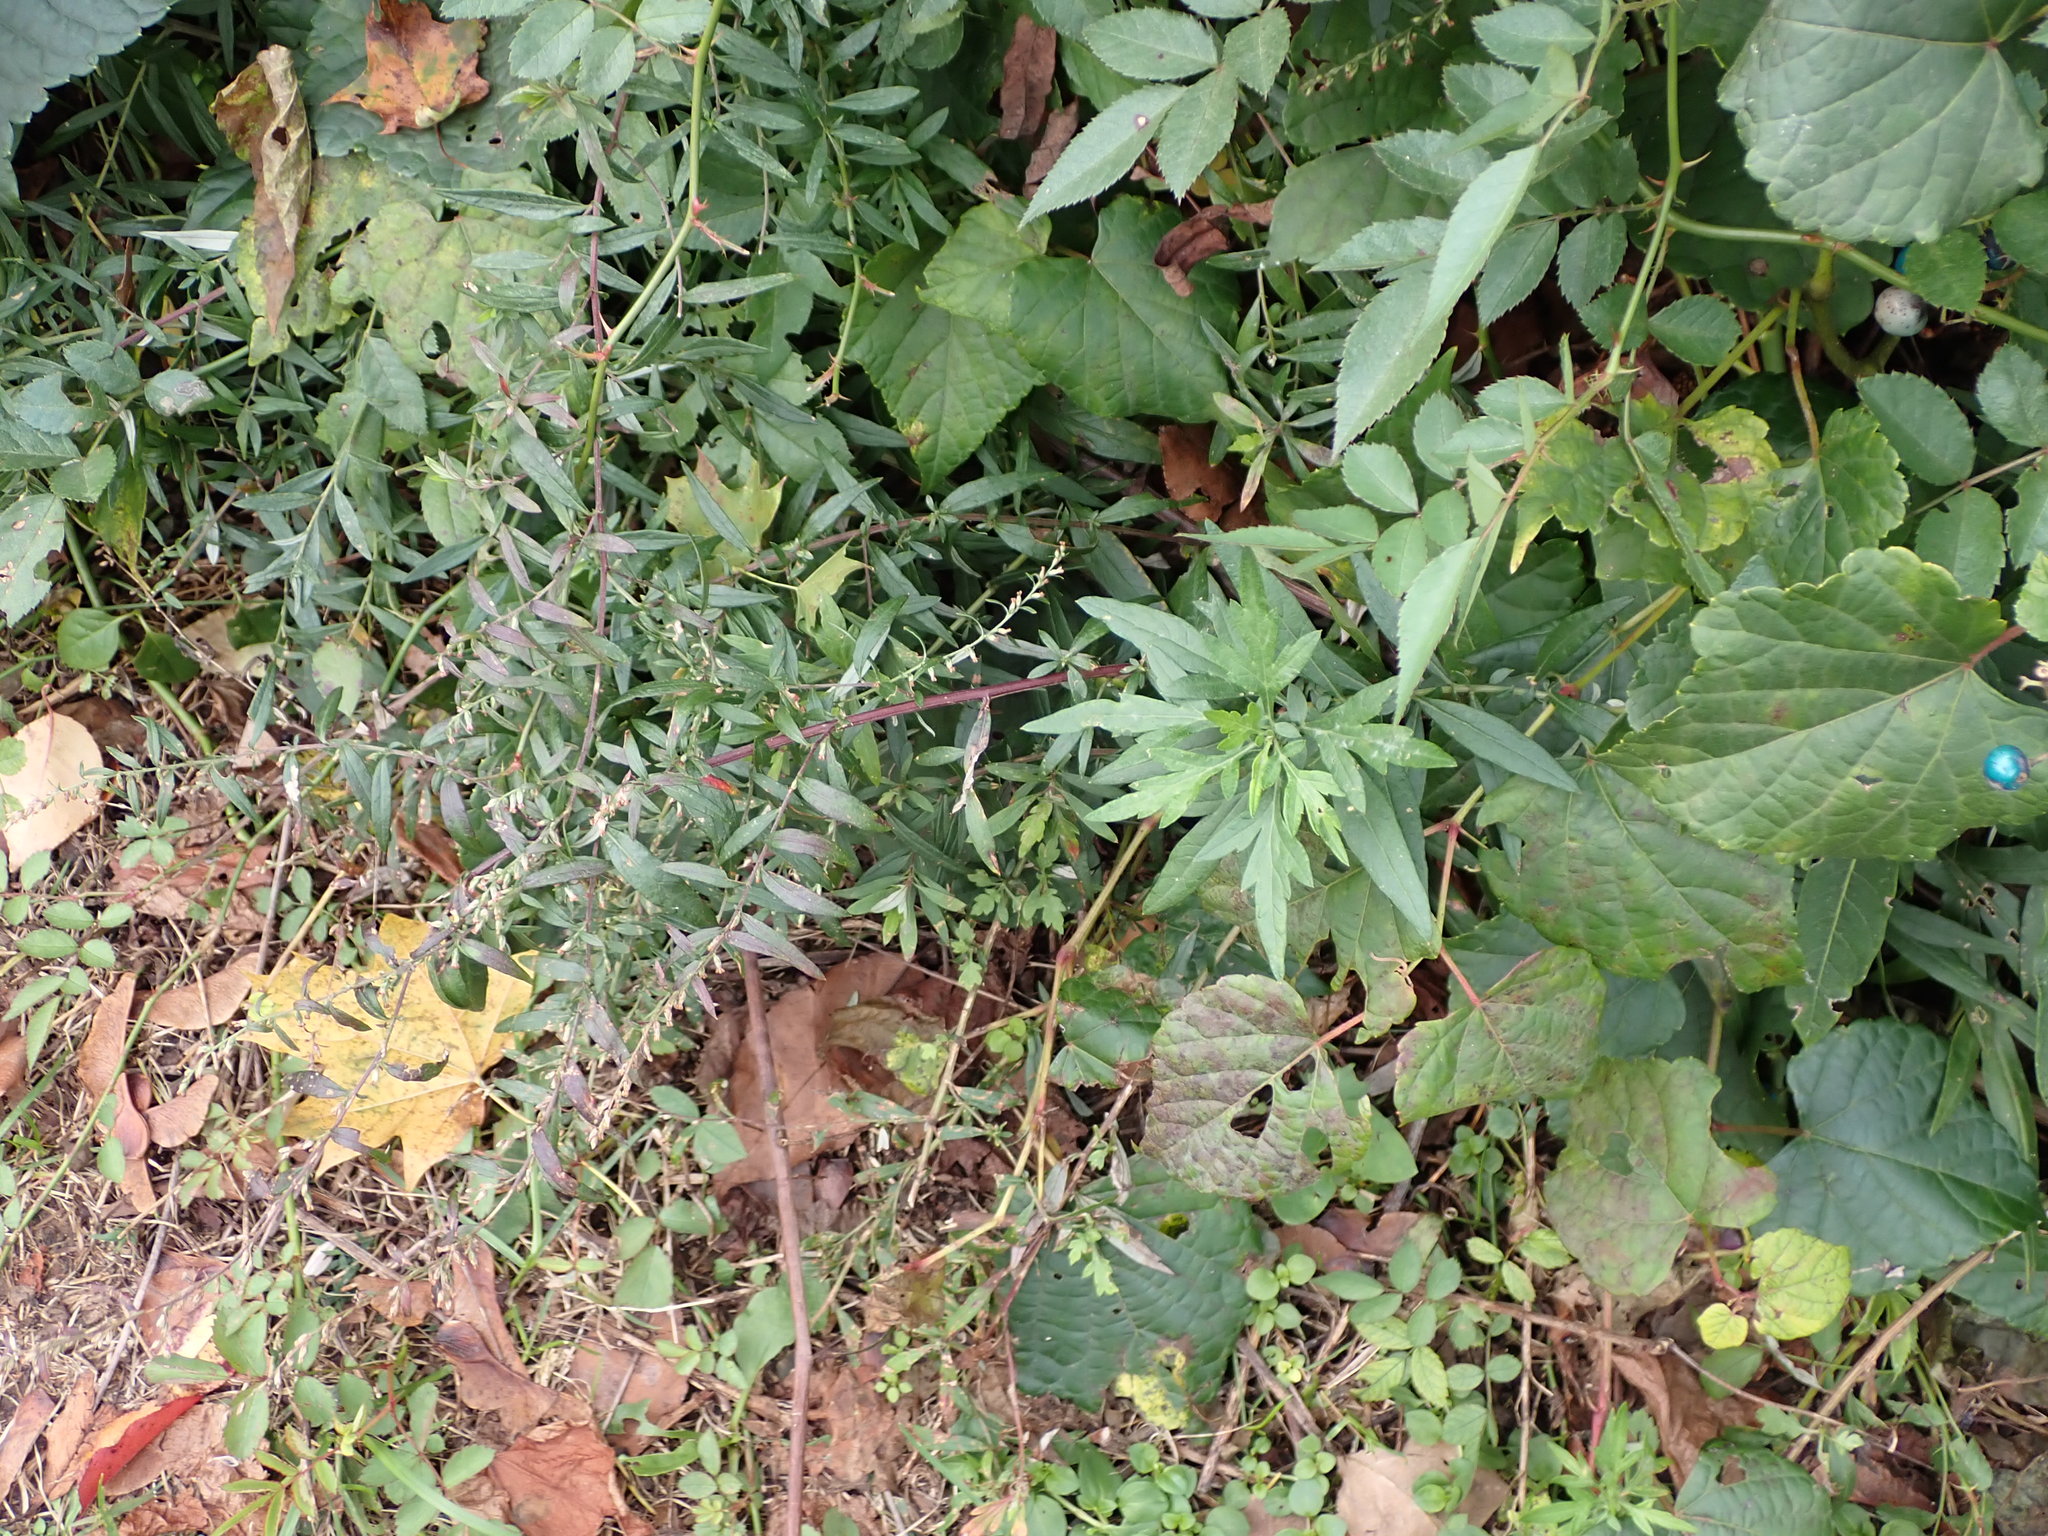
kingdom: Plantae
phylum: Tracheophyta
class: Magnoliopsida
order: Asterales
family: Asteraceae
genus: Artemisia
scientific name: Artemisia vulgaris
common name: Mugwort
